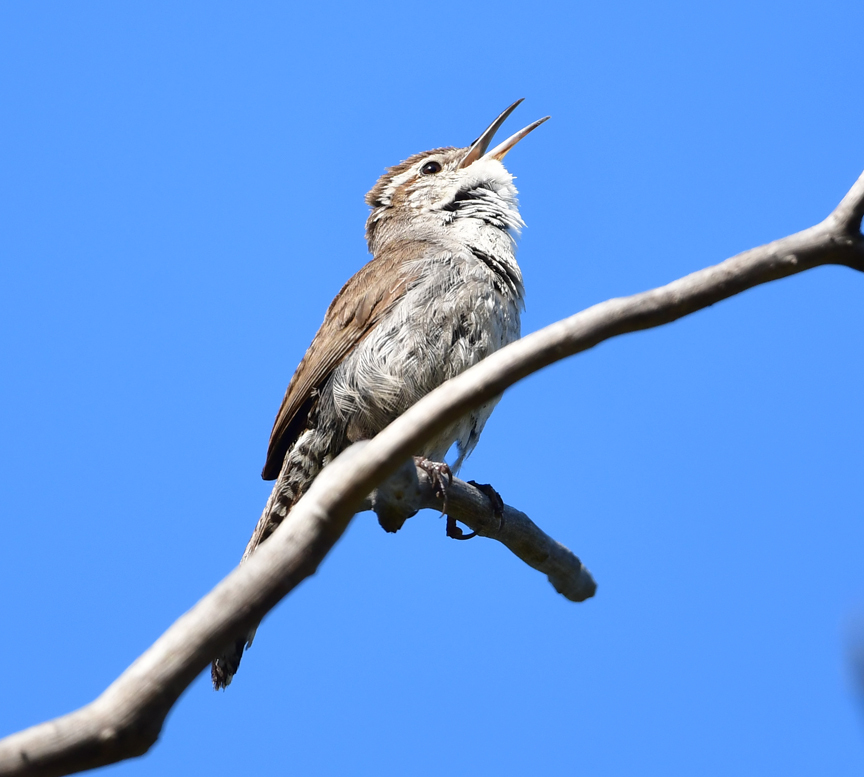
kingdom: Animalia
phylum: Chordata
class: Aves
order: Passeriformes
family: Troglodytidae
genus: Thryomanes
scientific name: Thryomanes bewickii
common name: Bewick's wren
